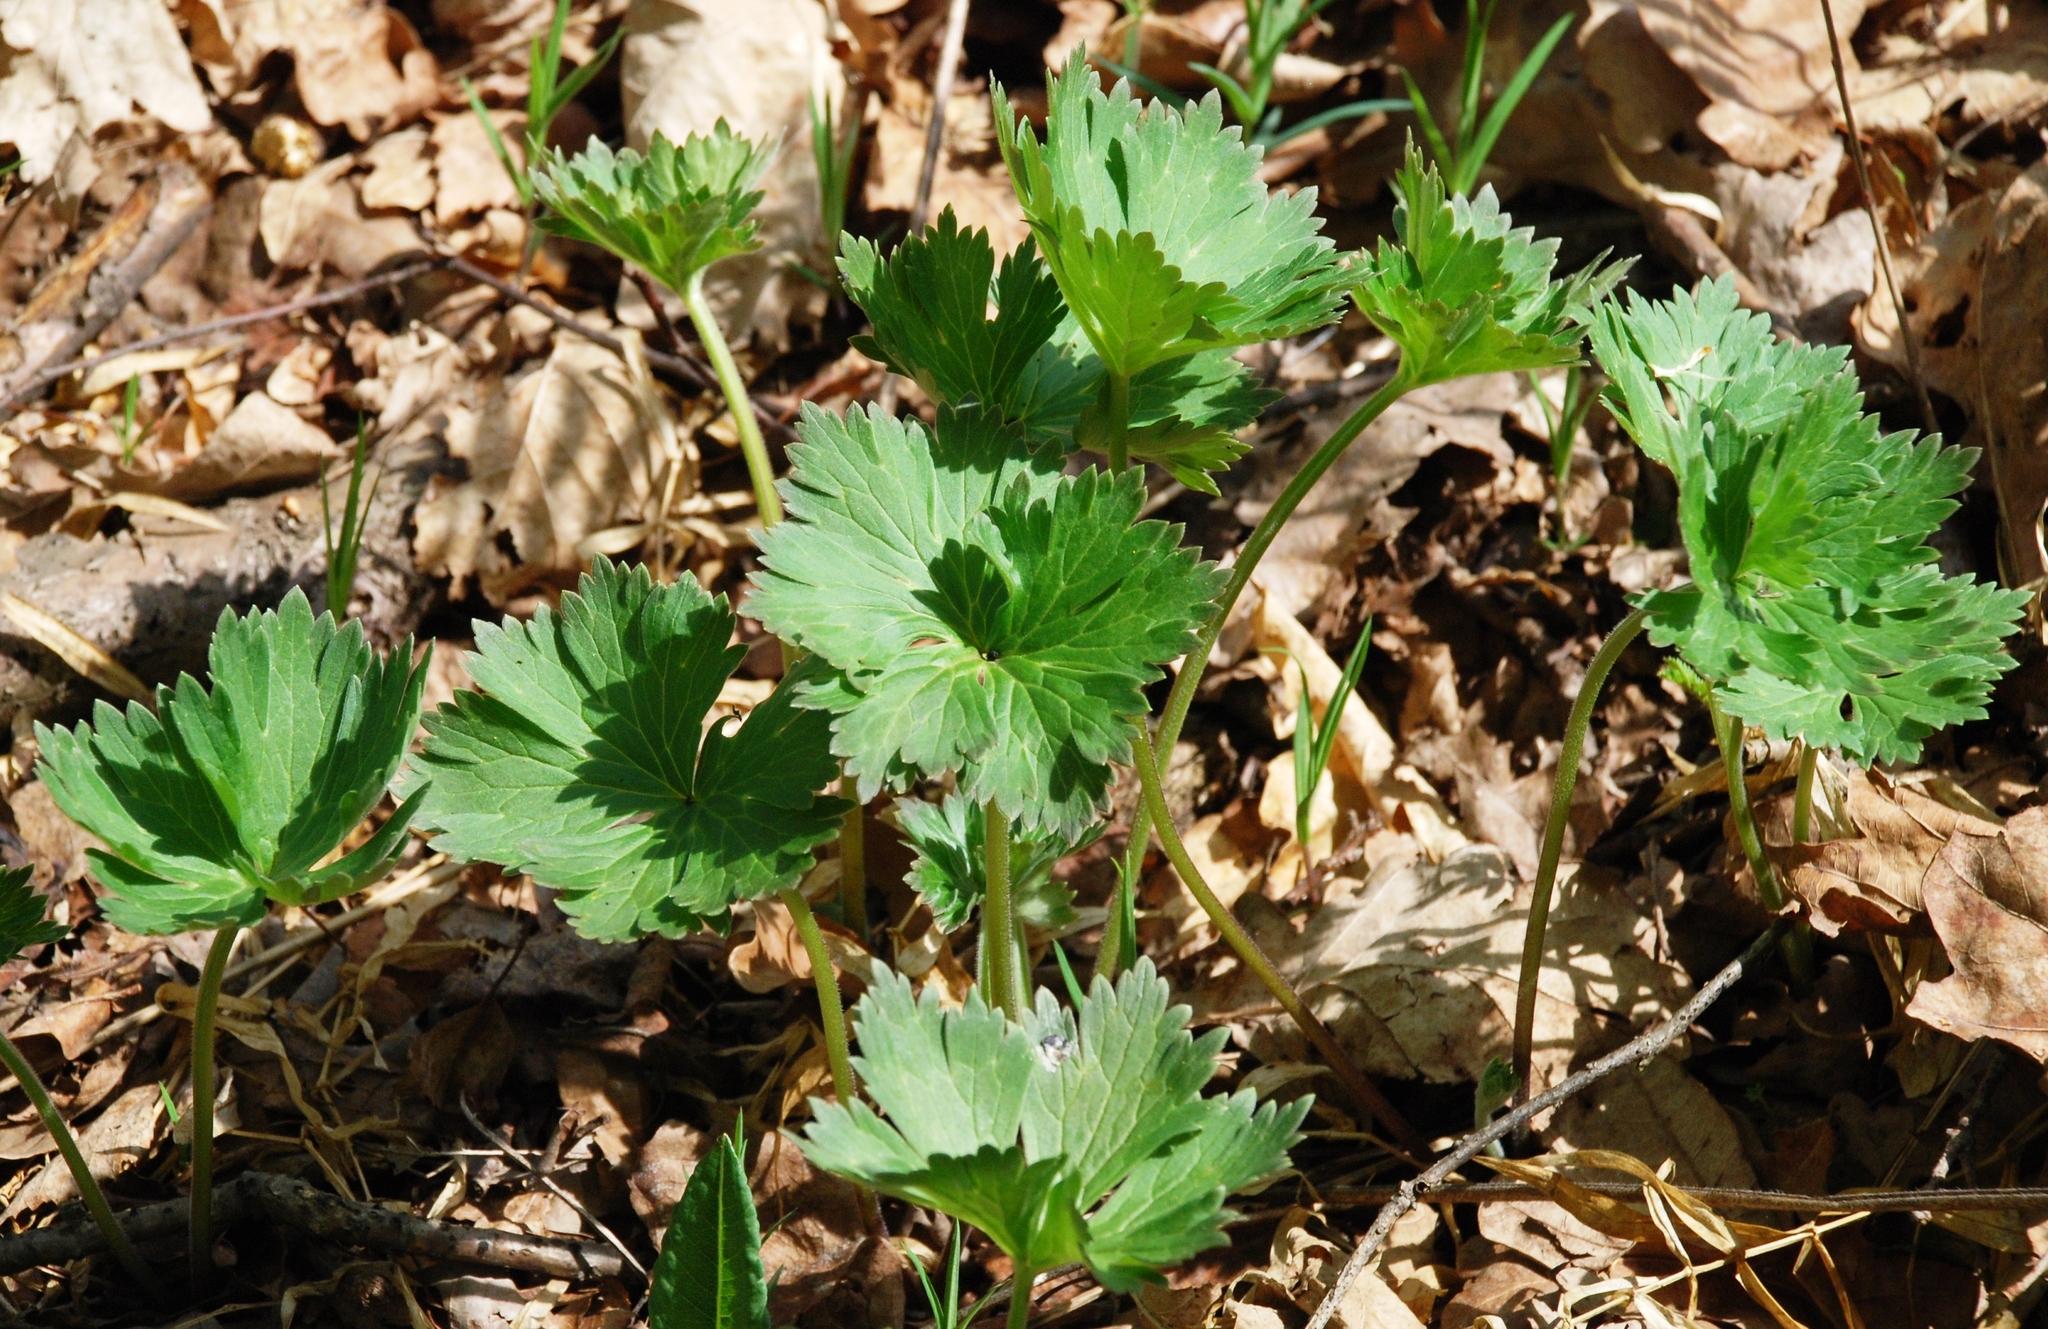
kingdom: Plantae
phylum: Tracheophyta
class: Magnoliopsida
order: Ranunculales
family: Ranunculaceae
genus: Trollius
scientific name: Trollius europaeus
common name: European globeflower
